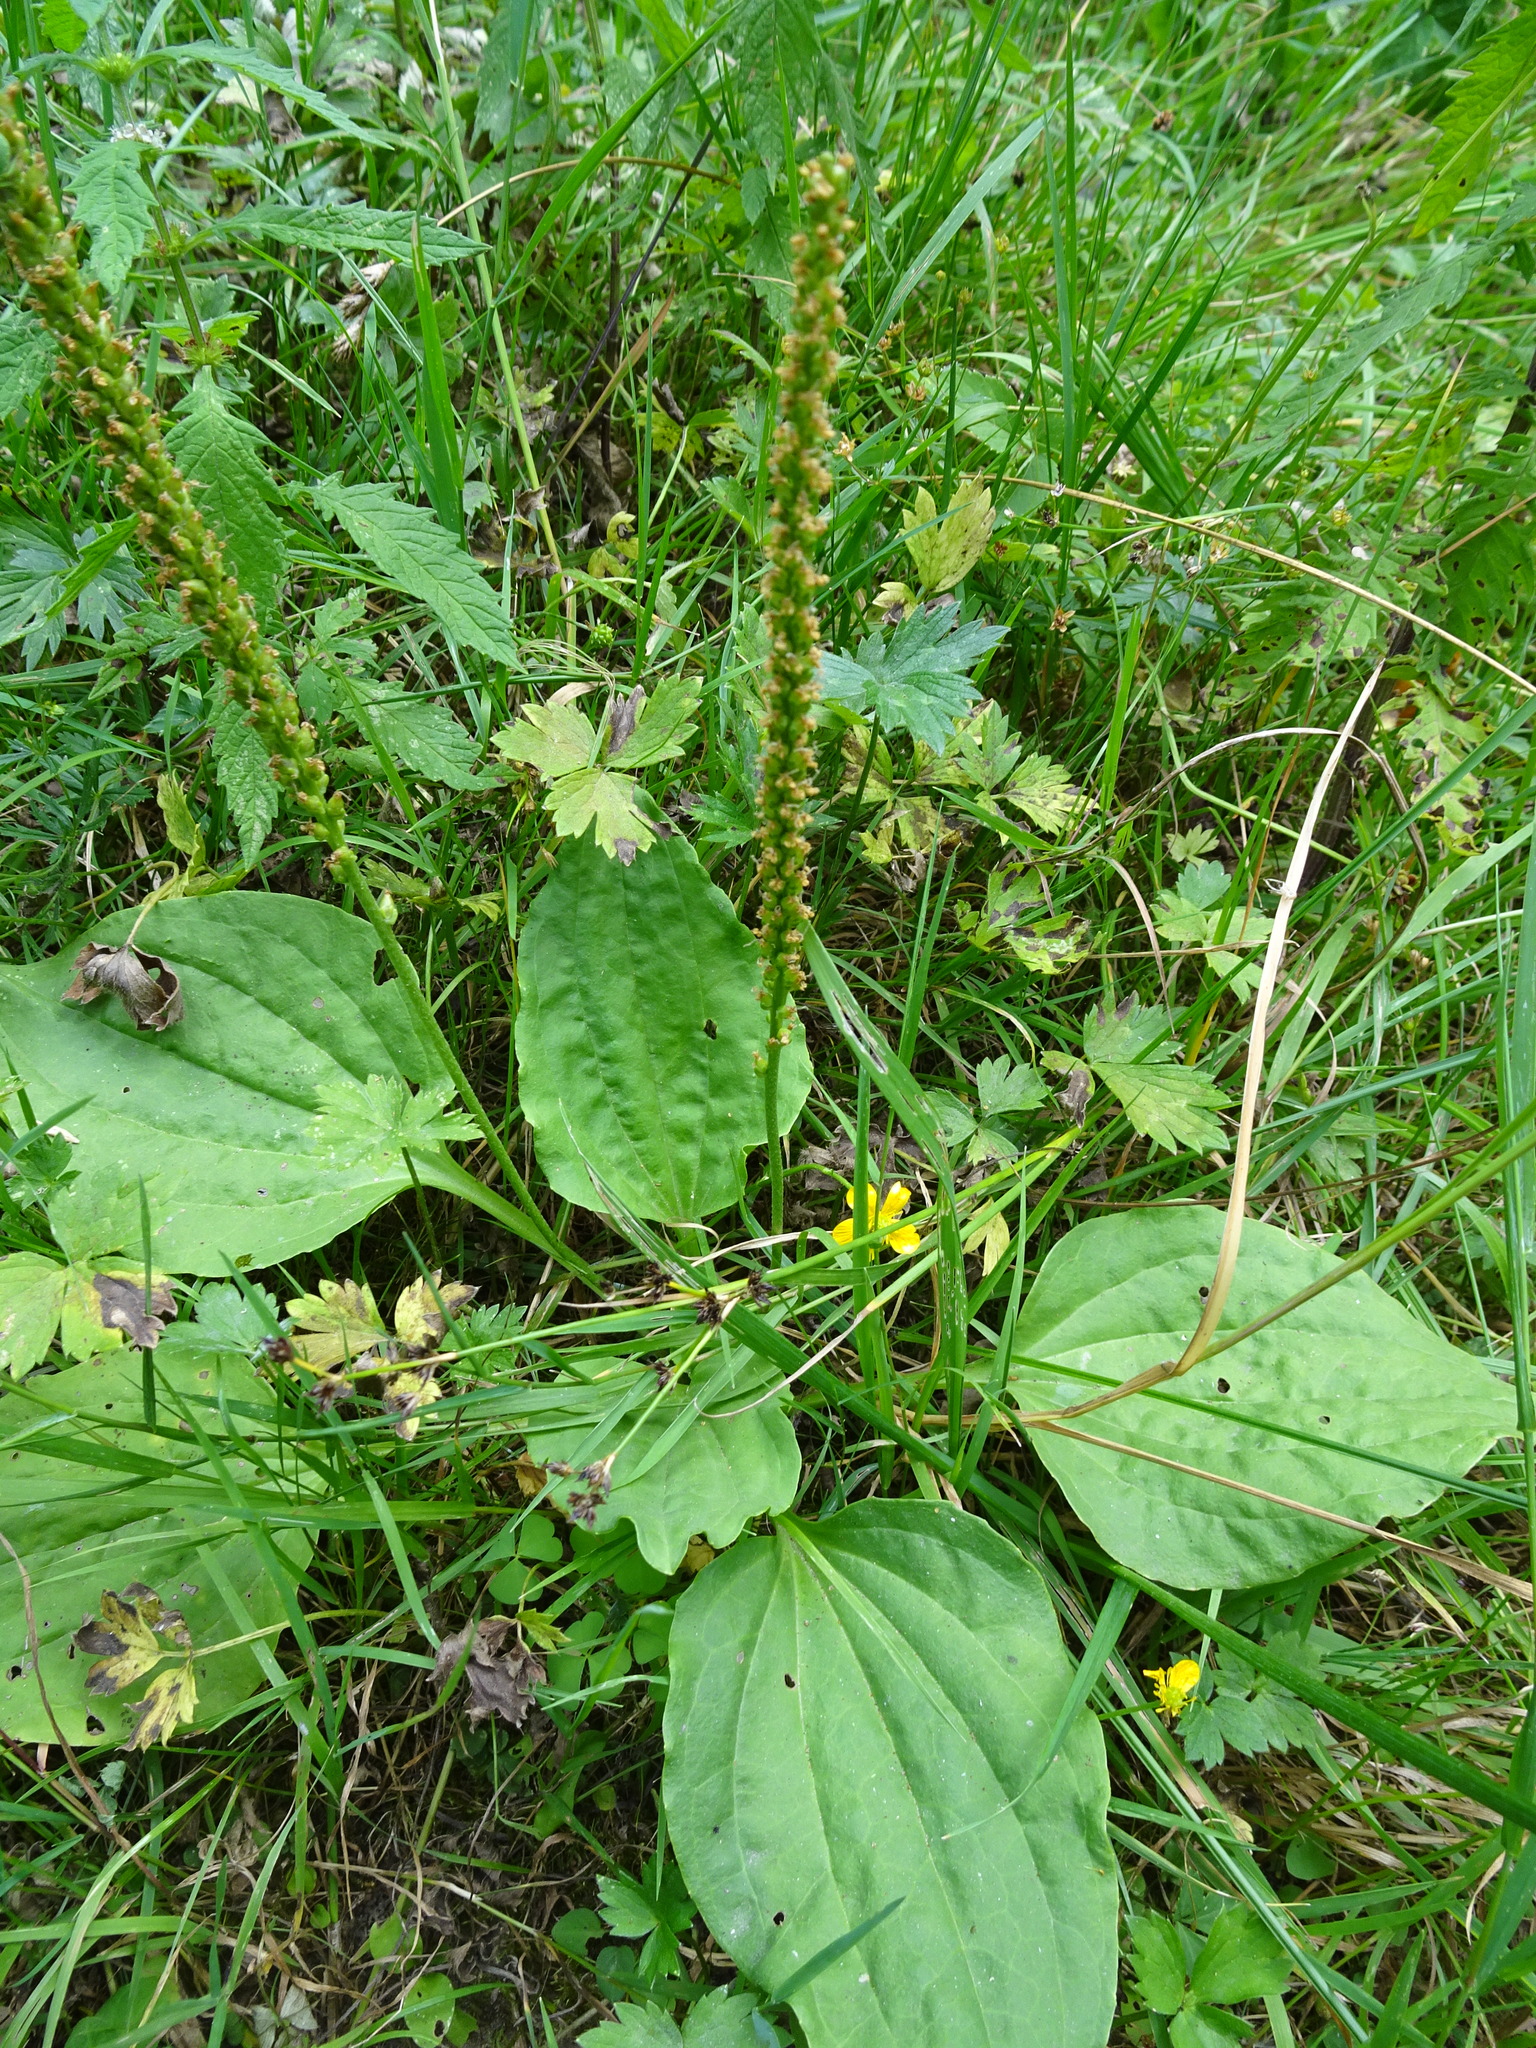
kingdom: Plantae
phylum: Tracheophyta
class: Magnoliopsida
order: Lamiales
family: Plantaginaceae
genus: Plantago
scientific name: Plantago major
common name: Common plantain
